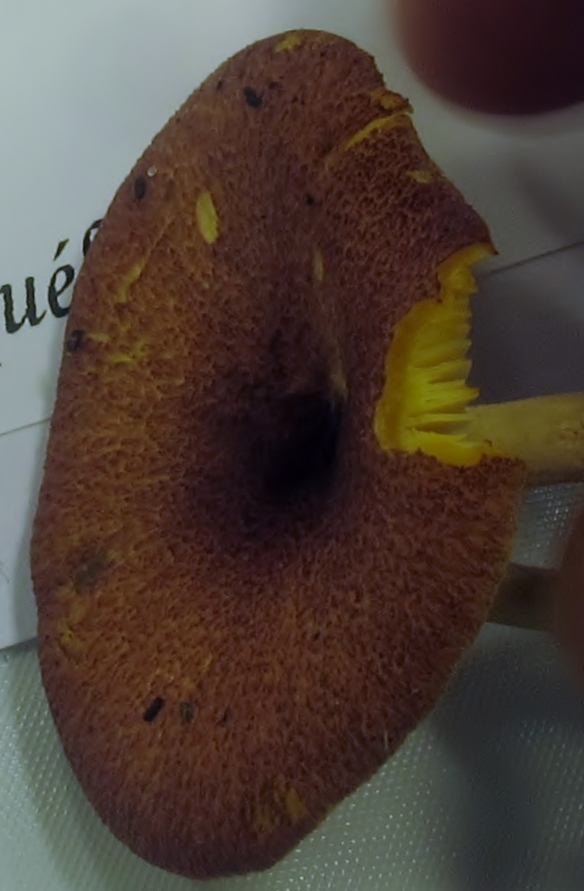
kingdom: Fungi
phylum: Basidiomycota
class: Agaricomycetes
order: Agaricales
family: Tricholomataceae
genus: Tricholomopsis
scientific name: Tricholomopsis flammula
